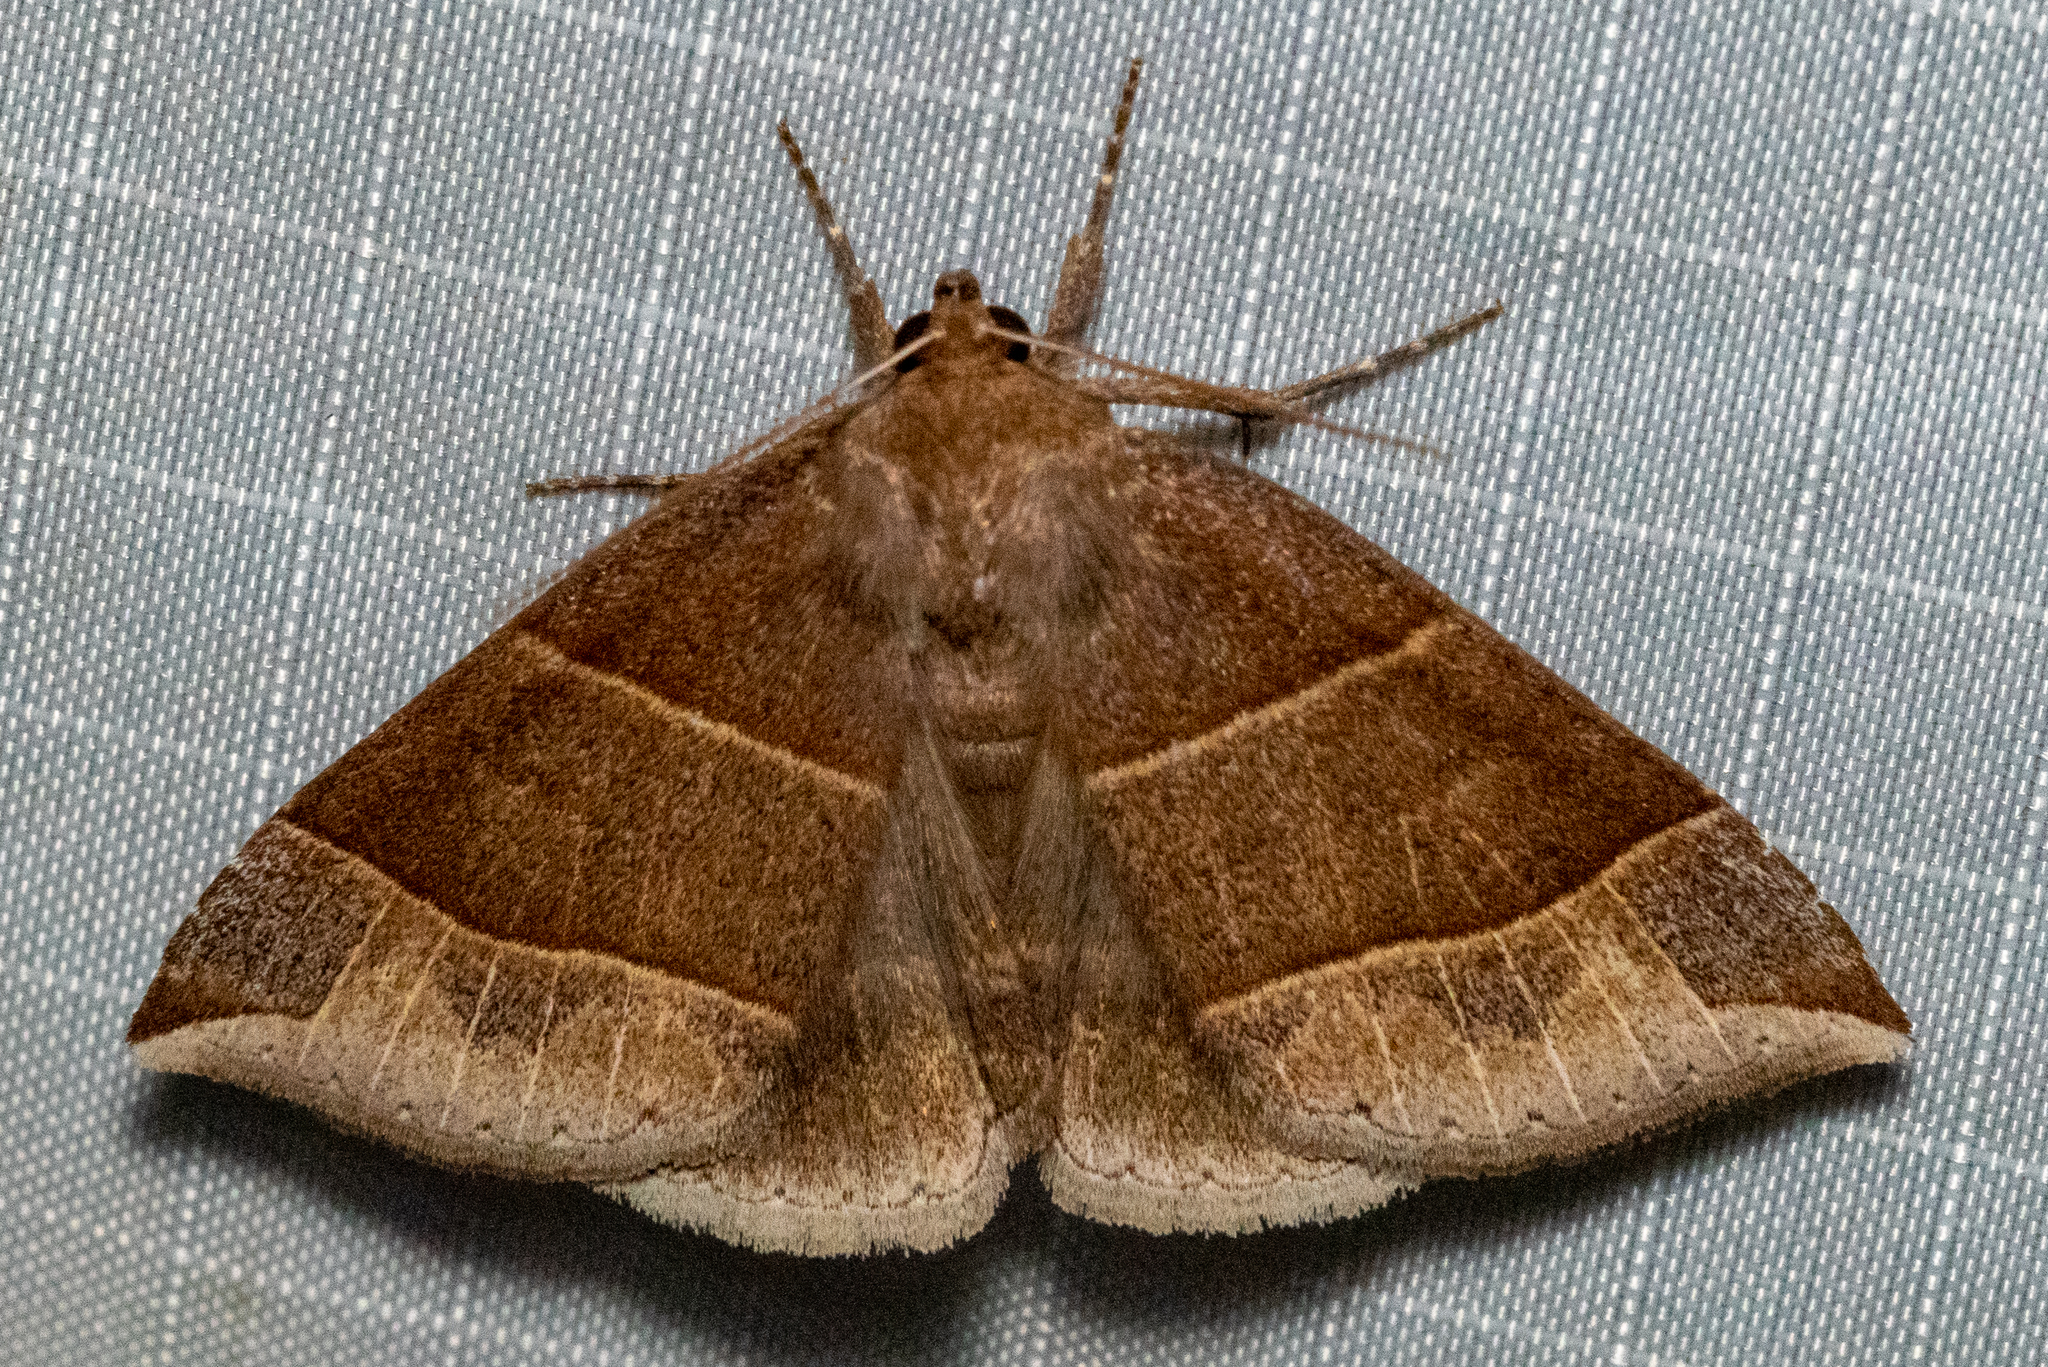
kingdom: Animalia
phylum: Arthropoda
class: Insecta
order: Lepidoptera
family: Erebidae
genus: Parallelia
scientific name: Parallelia bistriaris
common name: Maple looper moth
